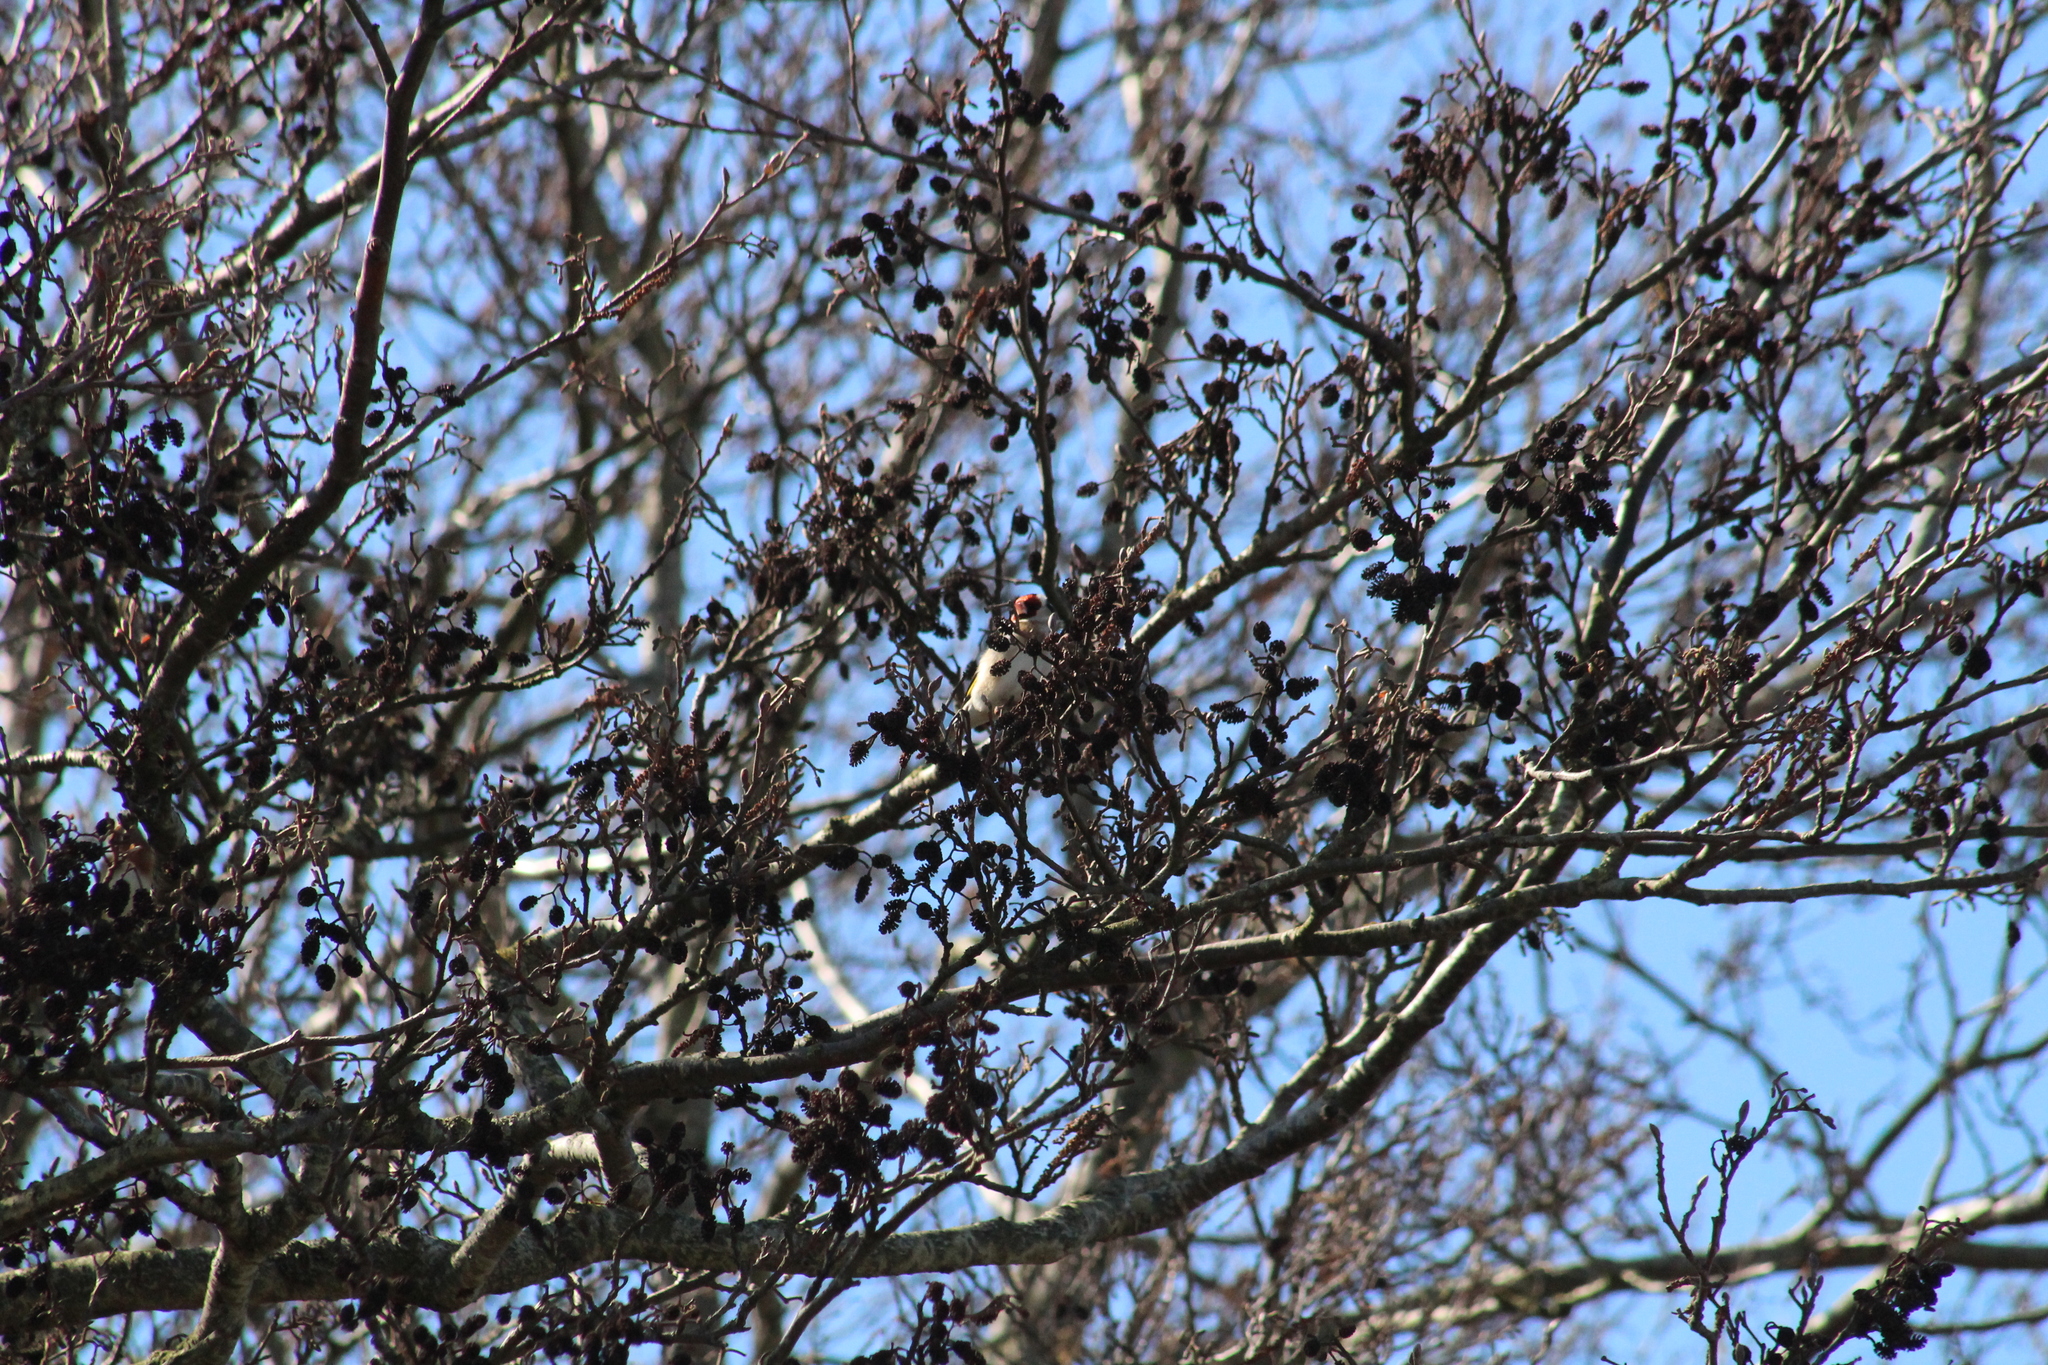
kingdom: Animalia
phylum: Chordata
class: Aves
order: Passeriformes
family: Fringillidae
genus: Carduelis
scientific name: Carduelis carduelis
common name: European goldfinch
